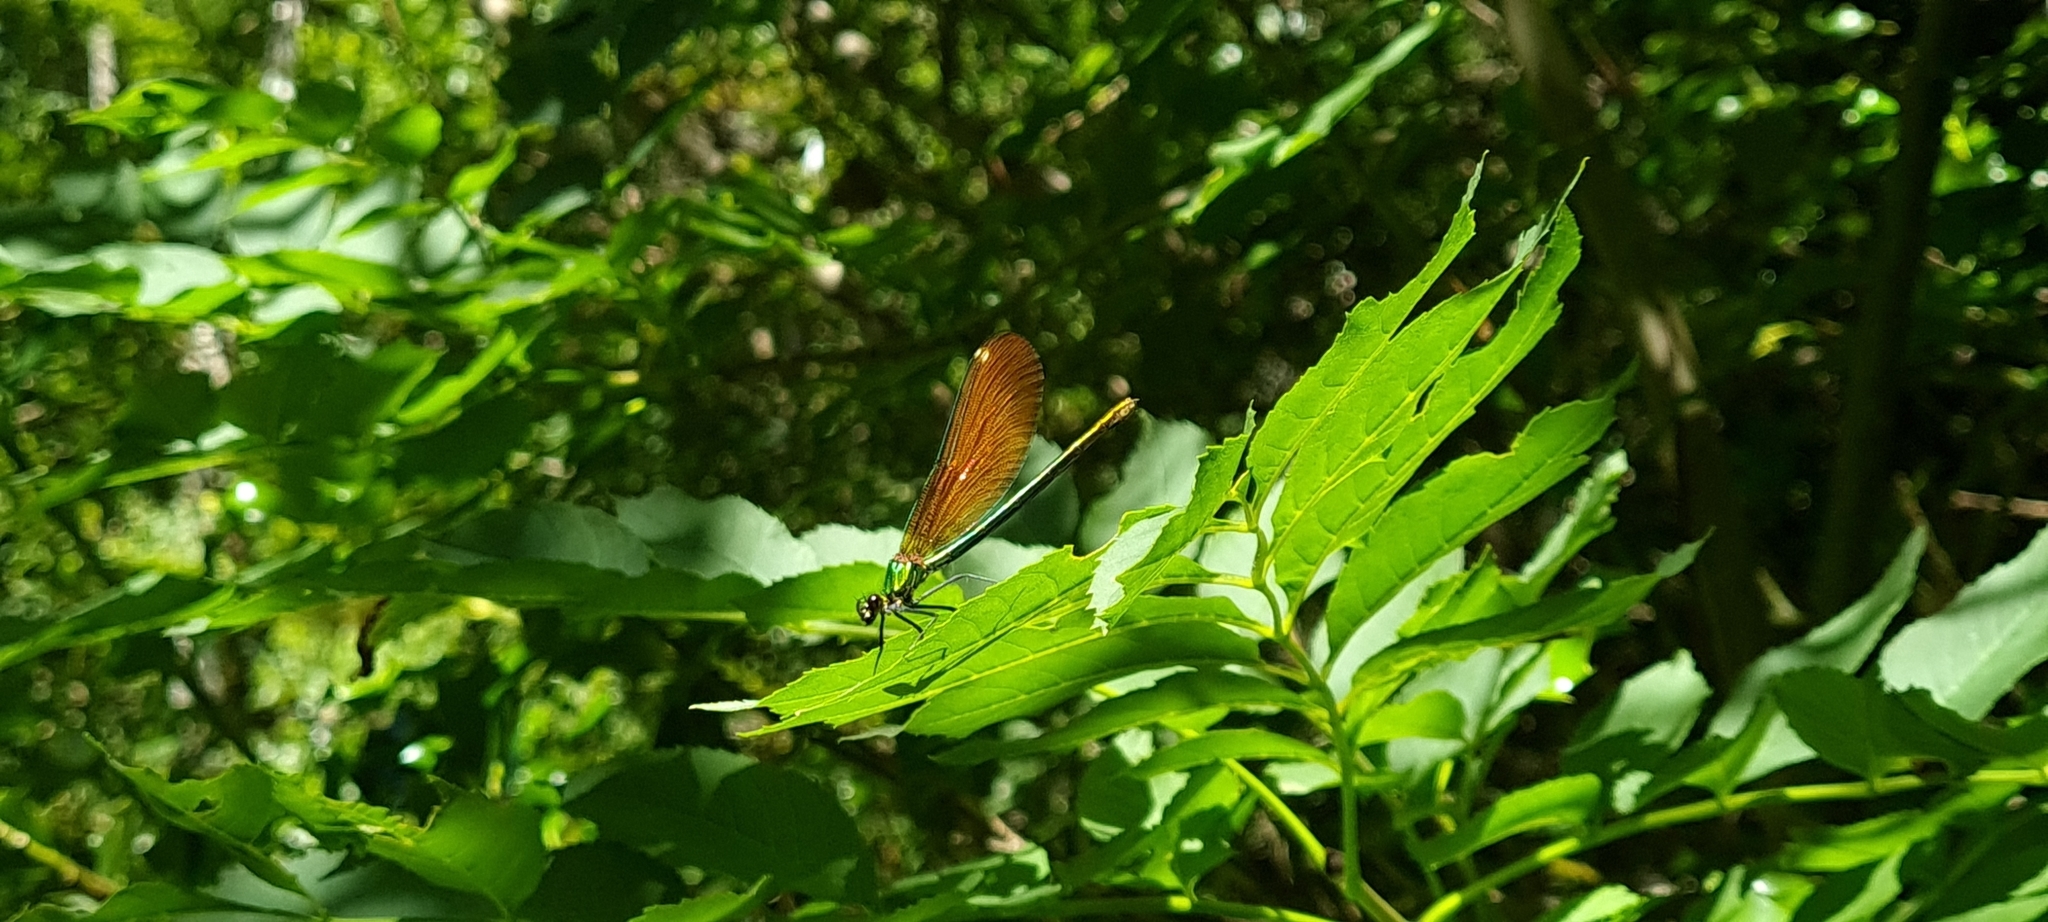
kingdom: Animalia
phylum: Arthropoda
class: Insecta
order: Odonata
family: Calopterygidae
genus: Calopteryx
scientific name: Calopteryx virgo
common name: Beautiful demoiselle
